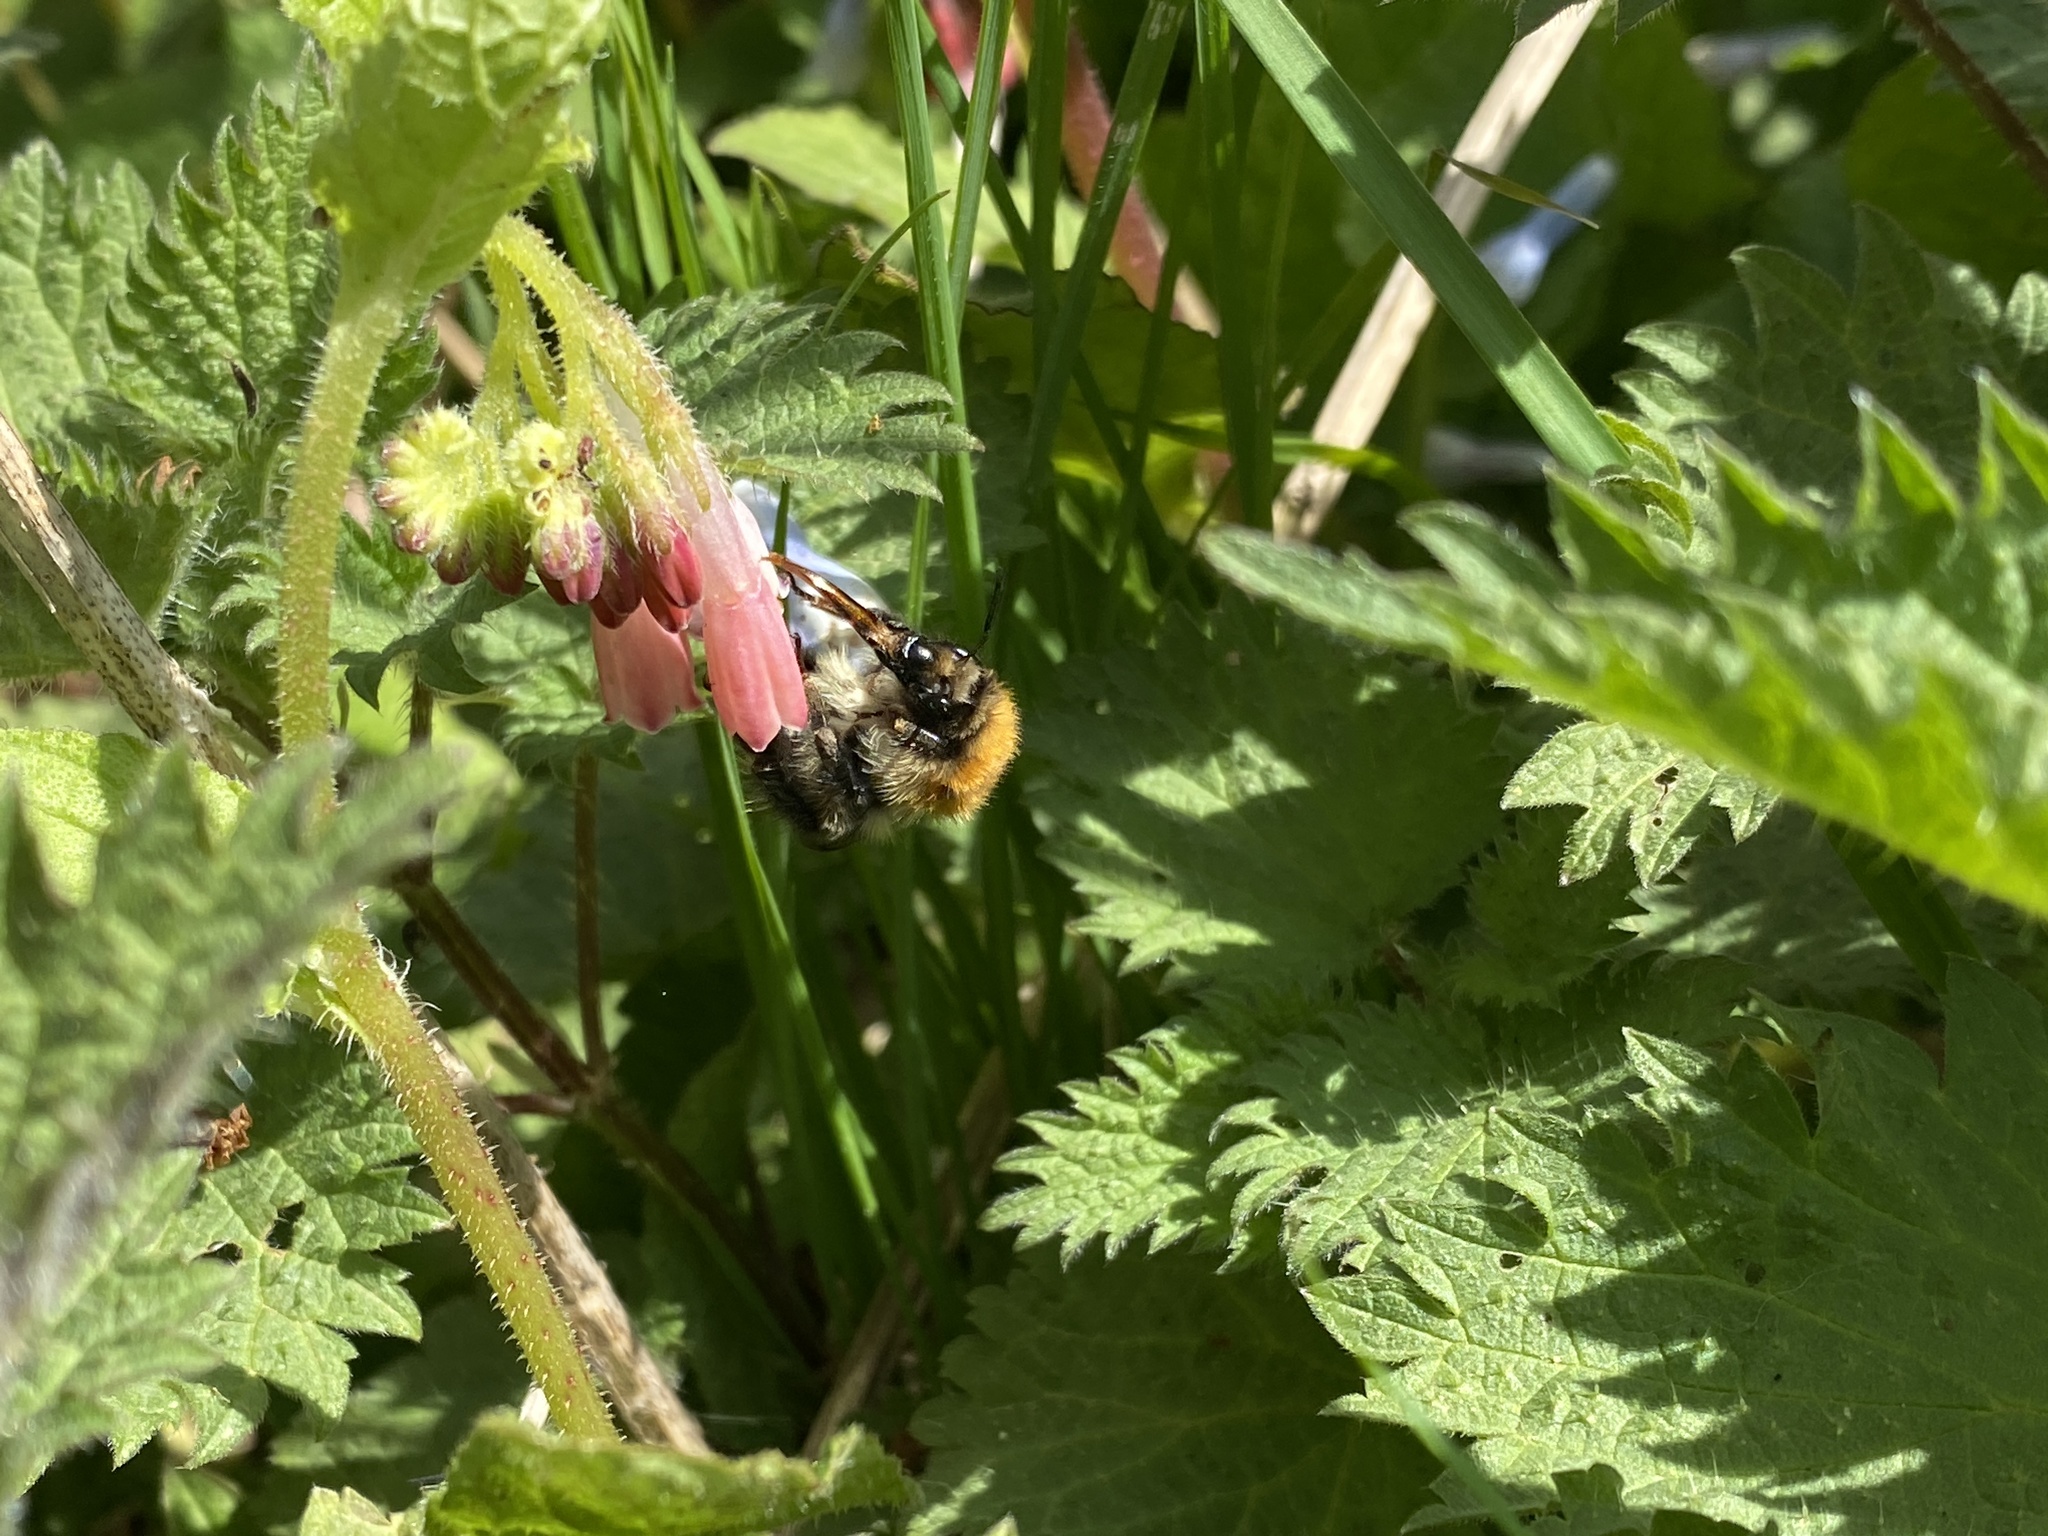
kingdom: Animalia
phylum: Arthropoda
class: Insecta
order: Hymenoptera
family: Apidae
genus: Bombus
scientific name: Bombus pascuorum
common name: Common carder bee
